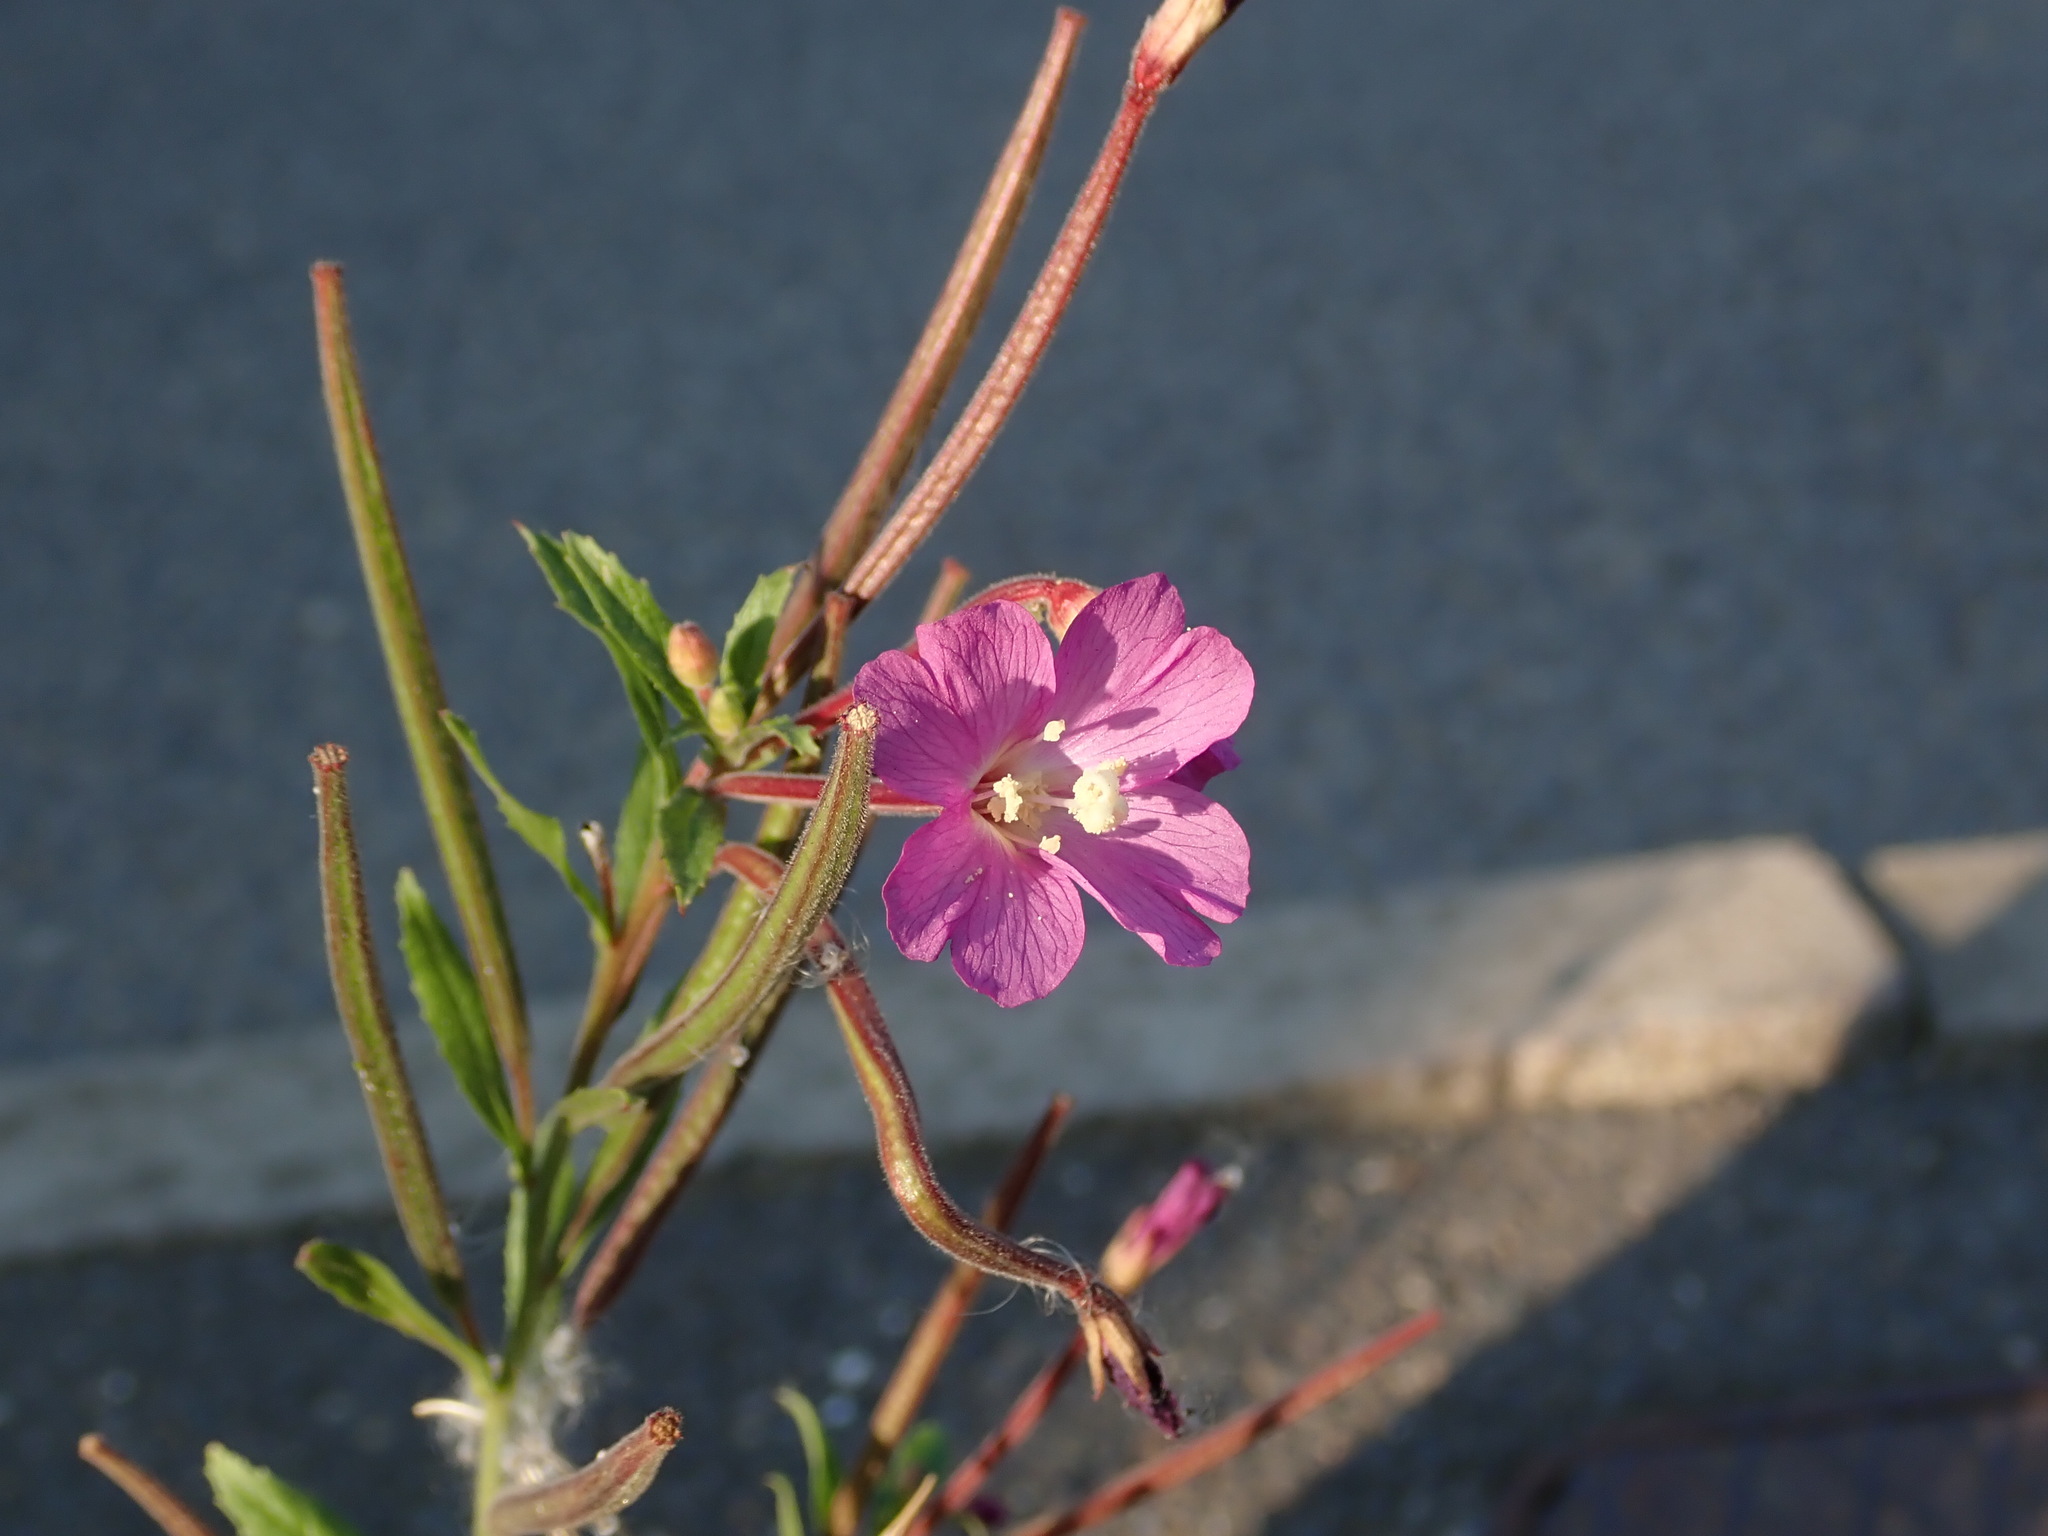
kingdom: Plantae
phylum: Tracheophyta
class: Magnoliopsida
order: Myrtales
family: Onagraceae
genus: Epilobium
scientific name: Epilobium hirsutum
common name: Great willowherb
